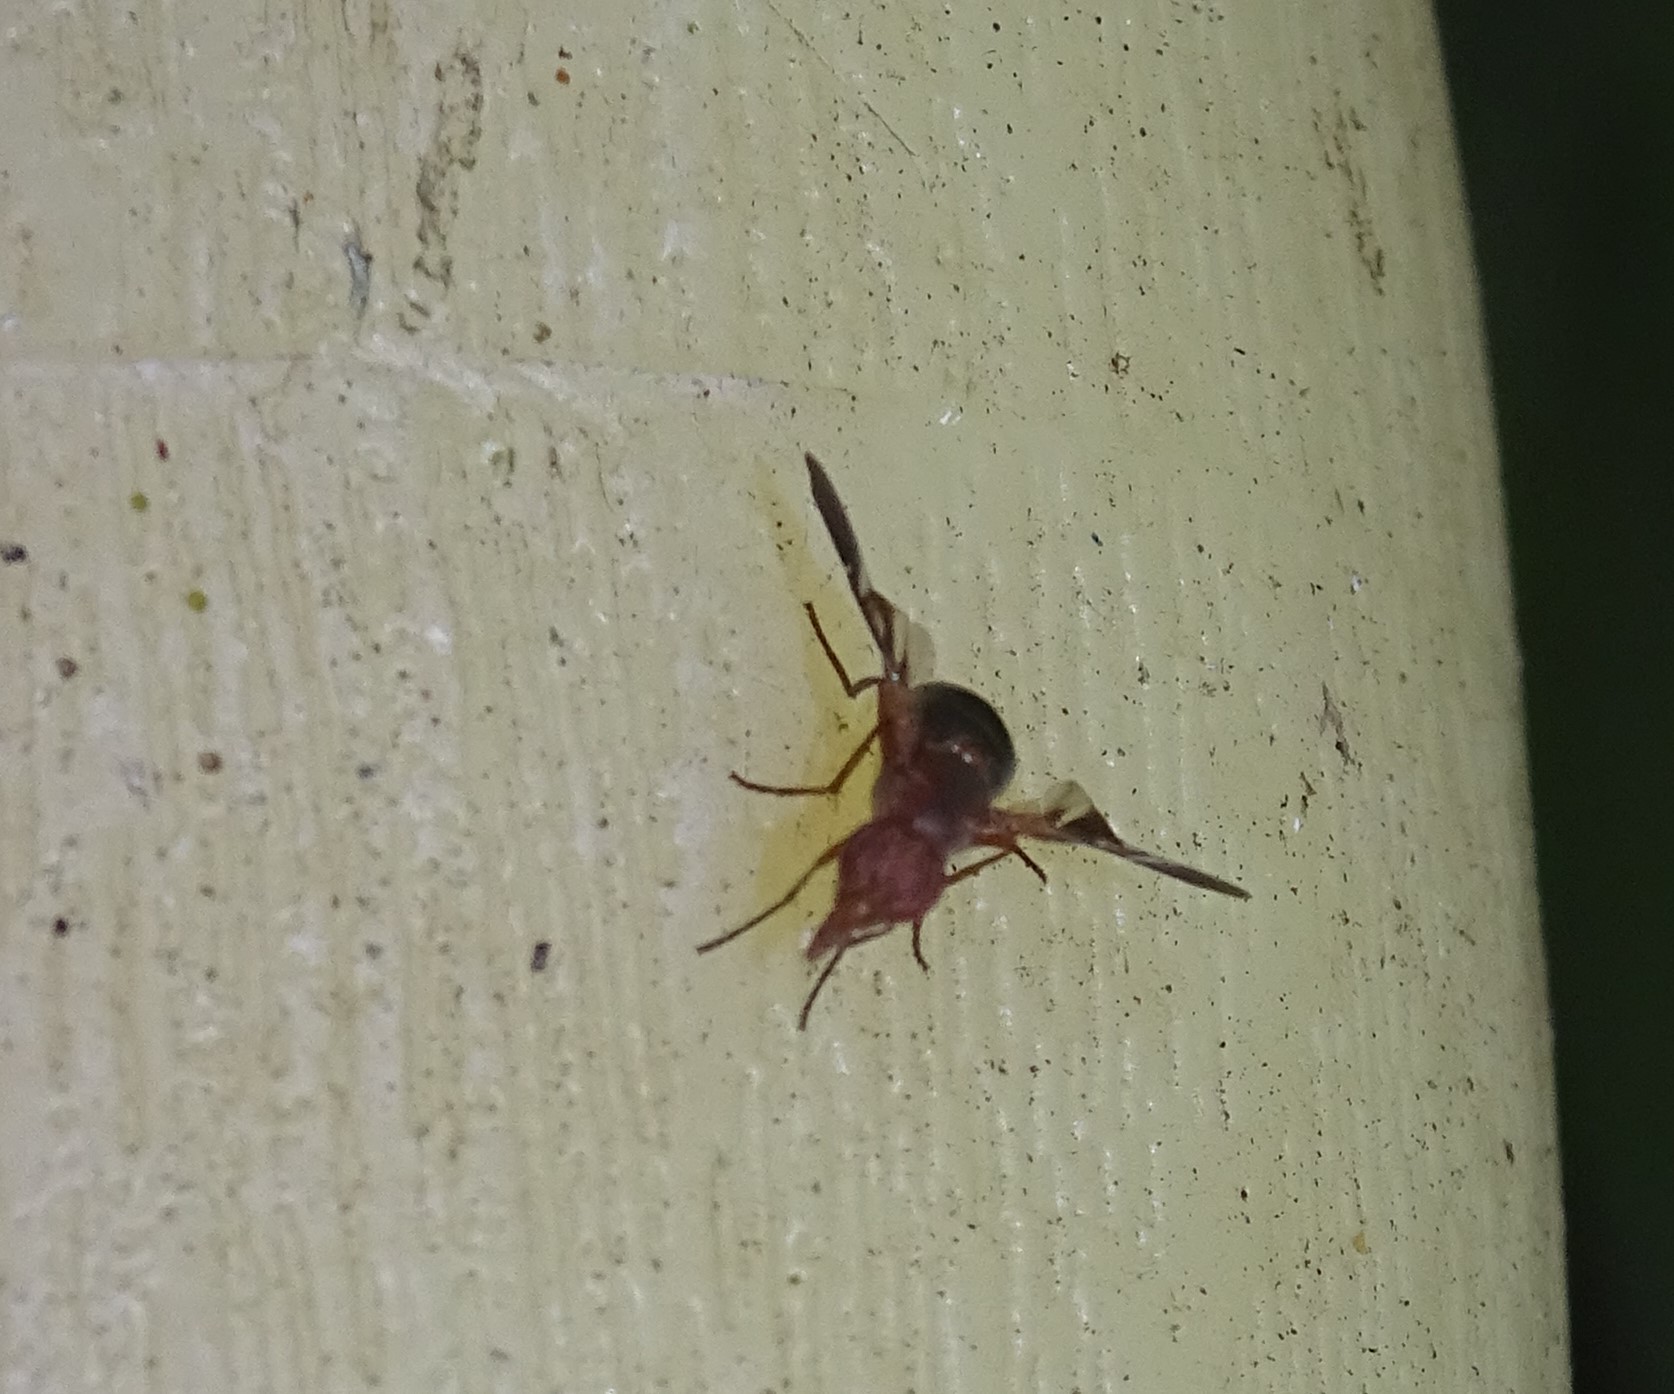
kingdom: Animalia
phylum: Arthropoda
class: Insecta
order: Diptera
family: Ulidiidae
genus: Delphinia
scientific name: Delphinia picta
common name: Common picture-winged fly
